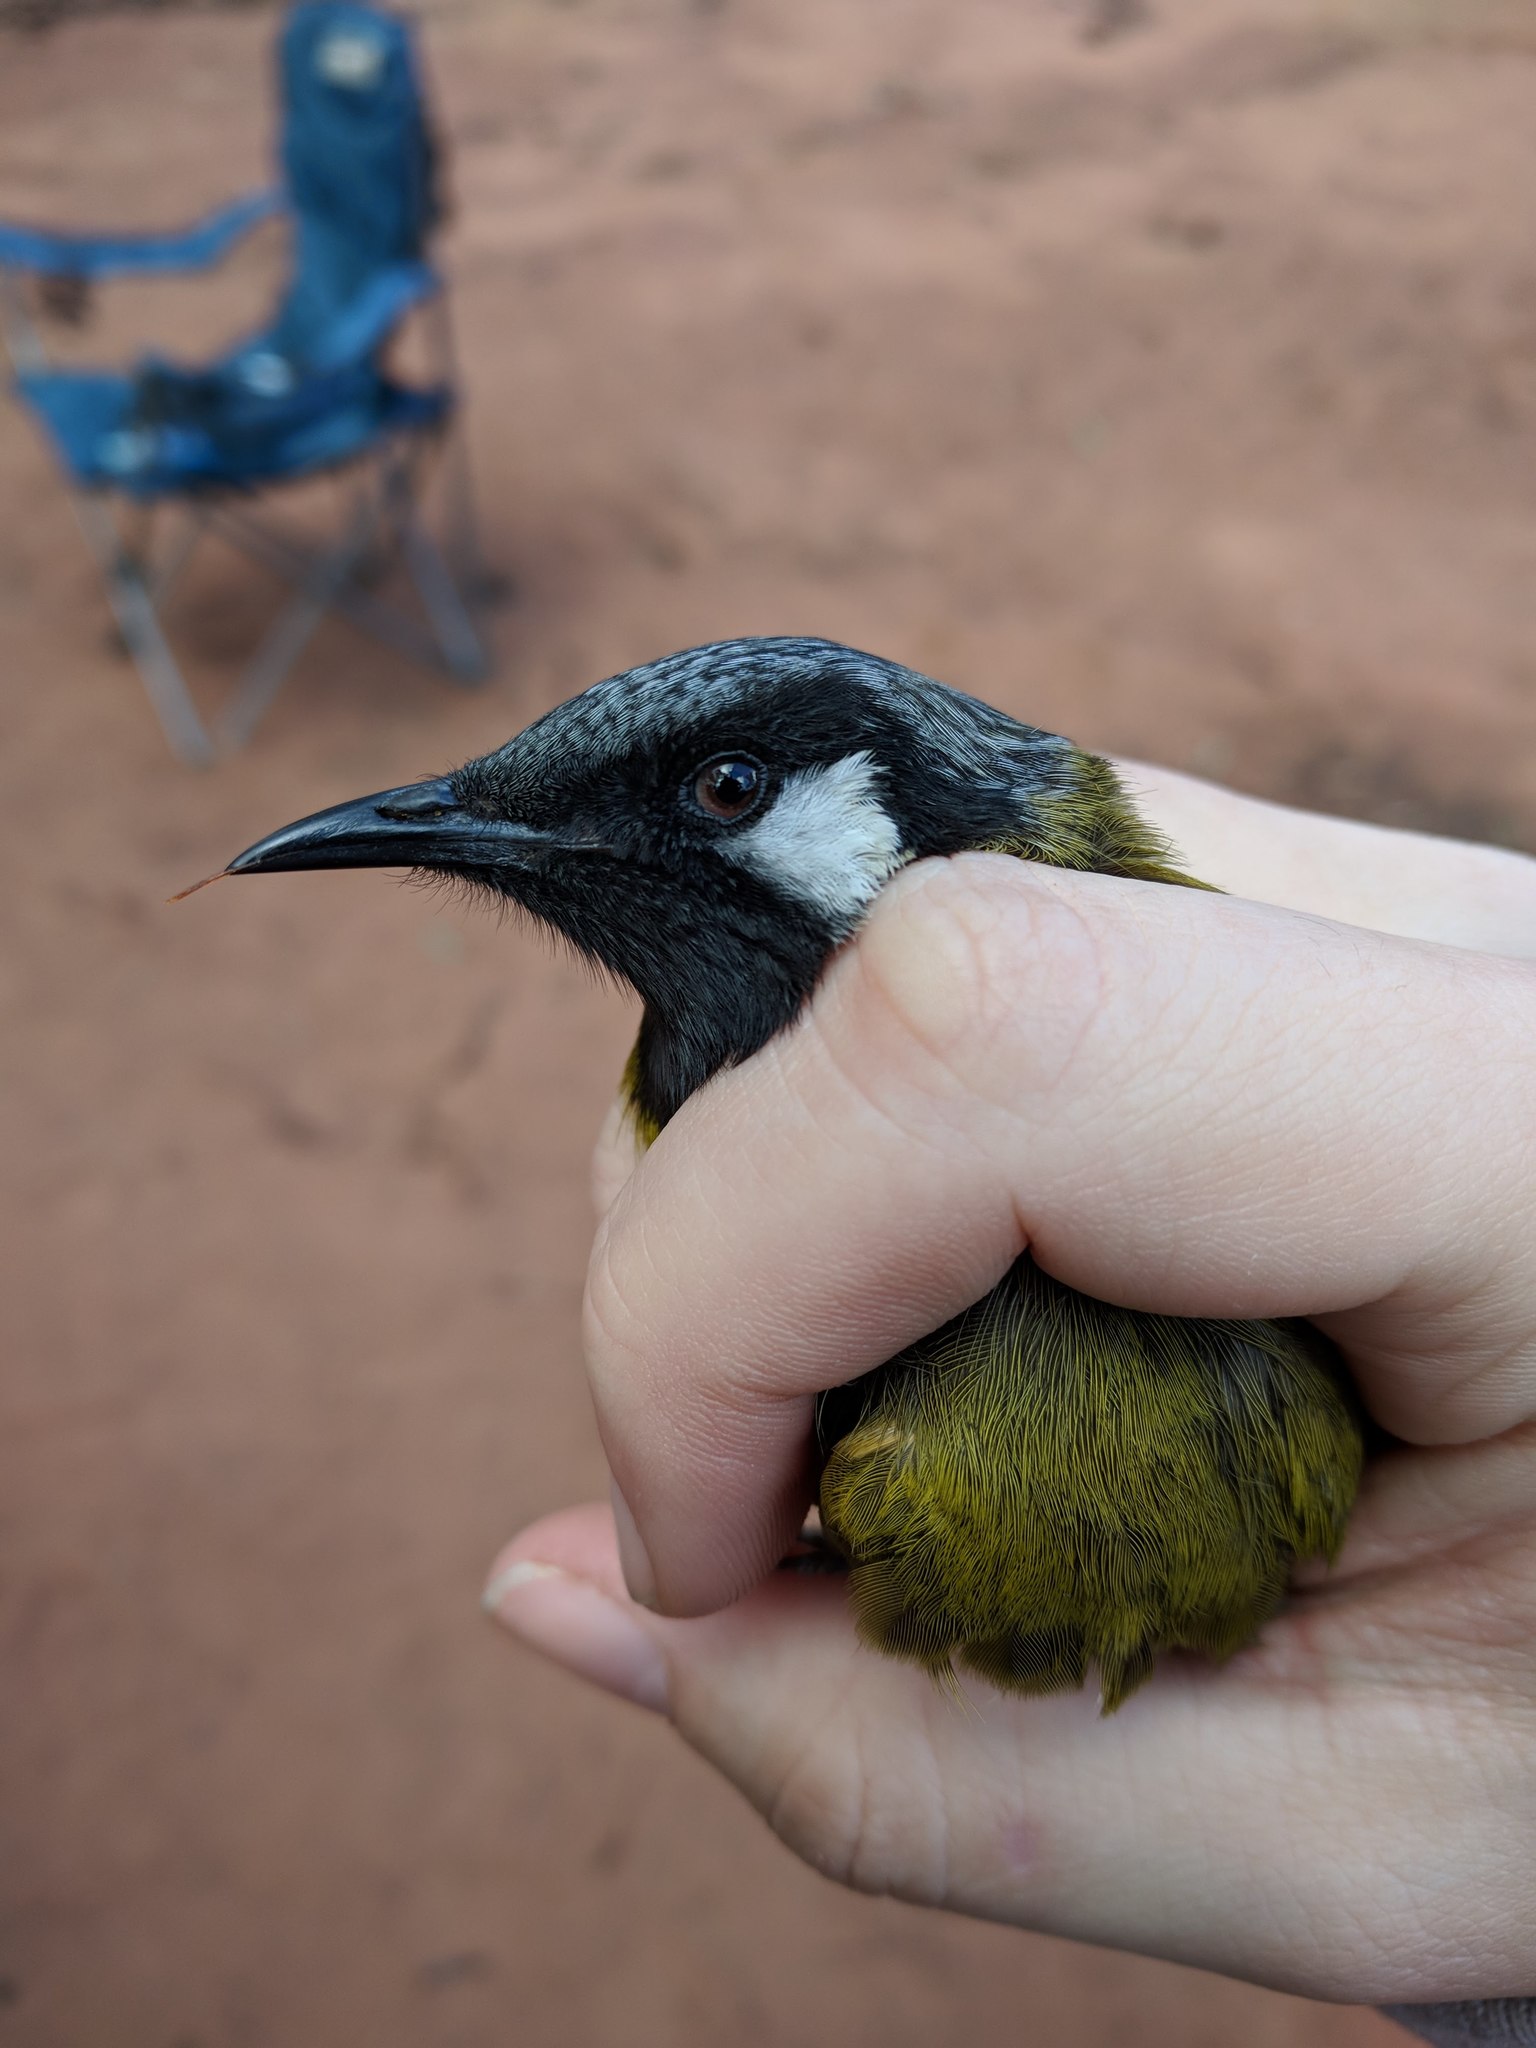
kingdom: Animalia
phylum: Chordata
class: Aves
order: Passeriformes
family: Meliphagidae
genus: Nesoptilotis
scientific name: Nesoptilotis leucotis
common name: White-eared honeyeater
